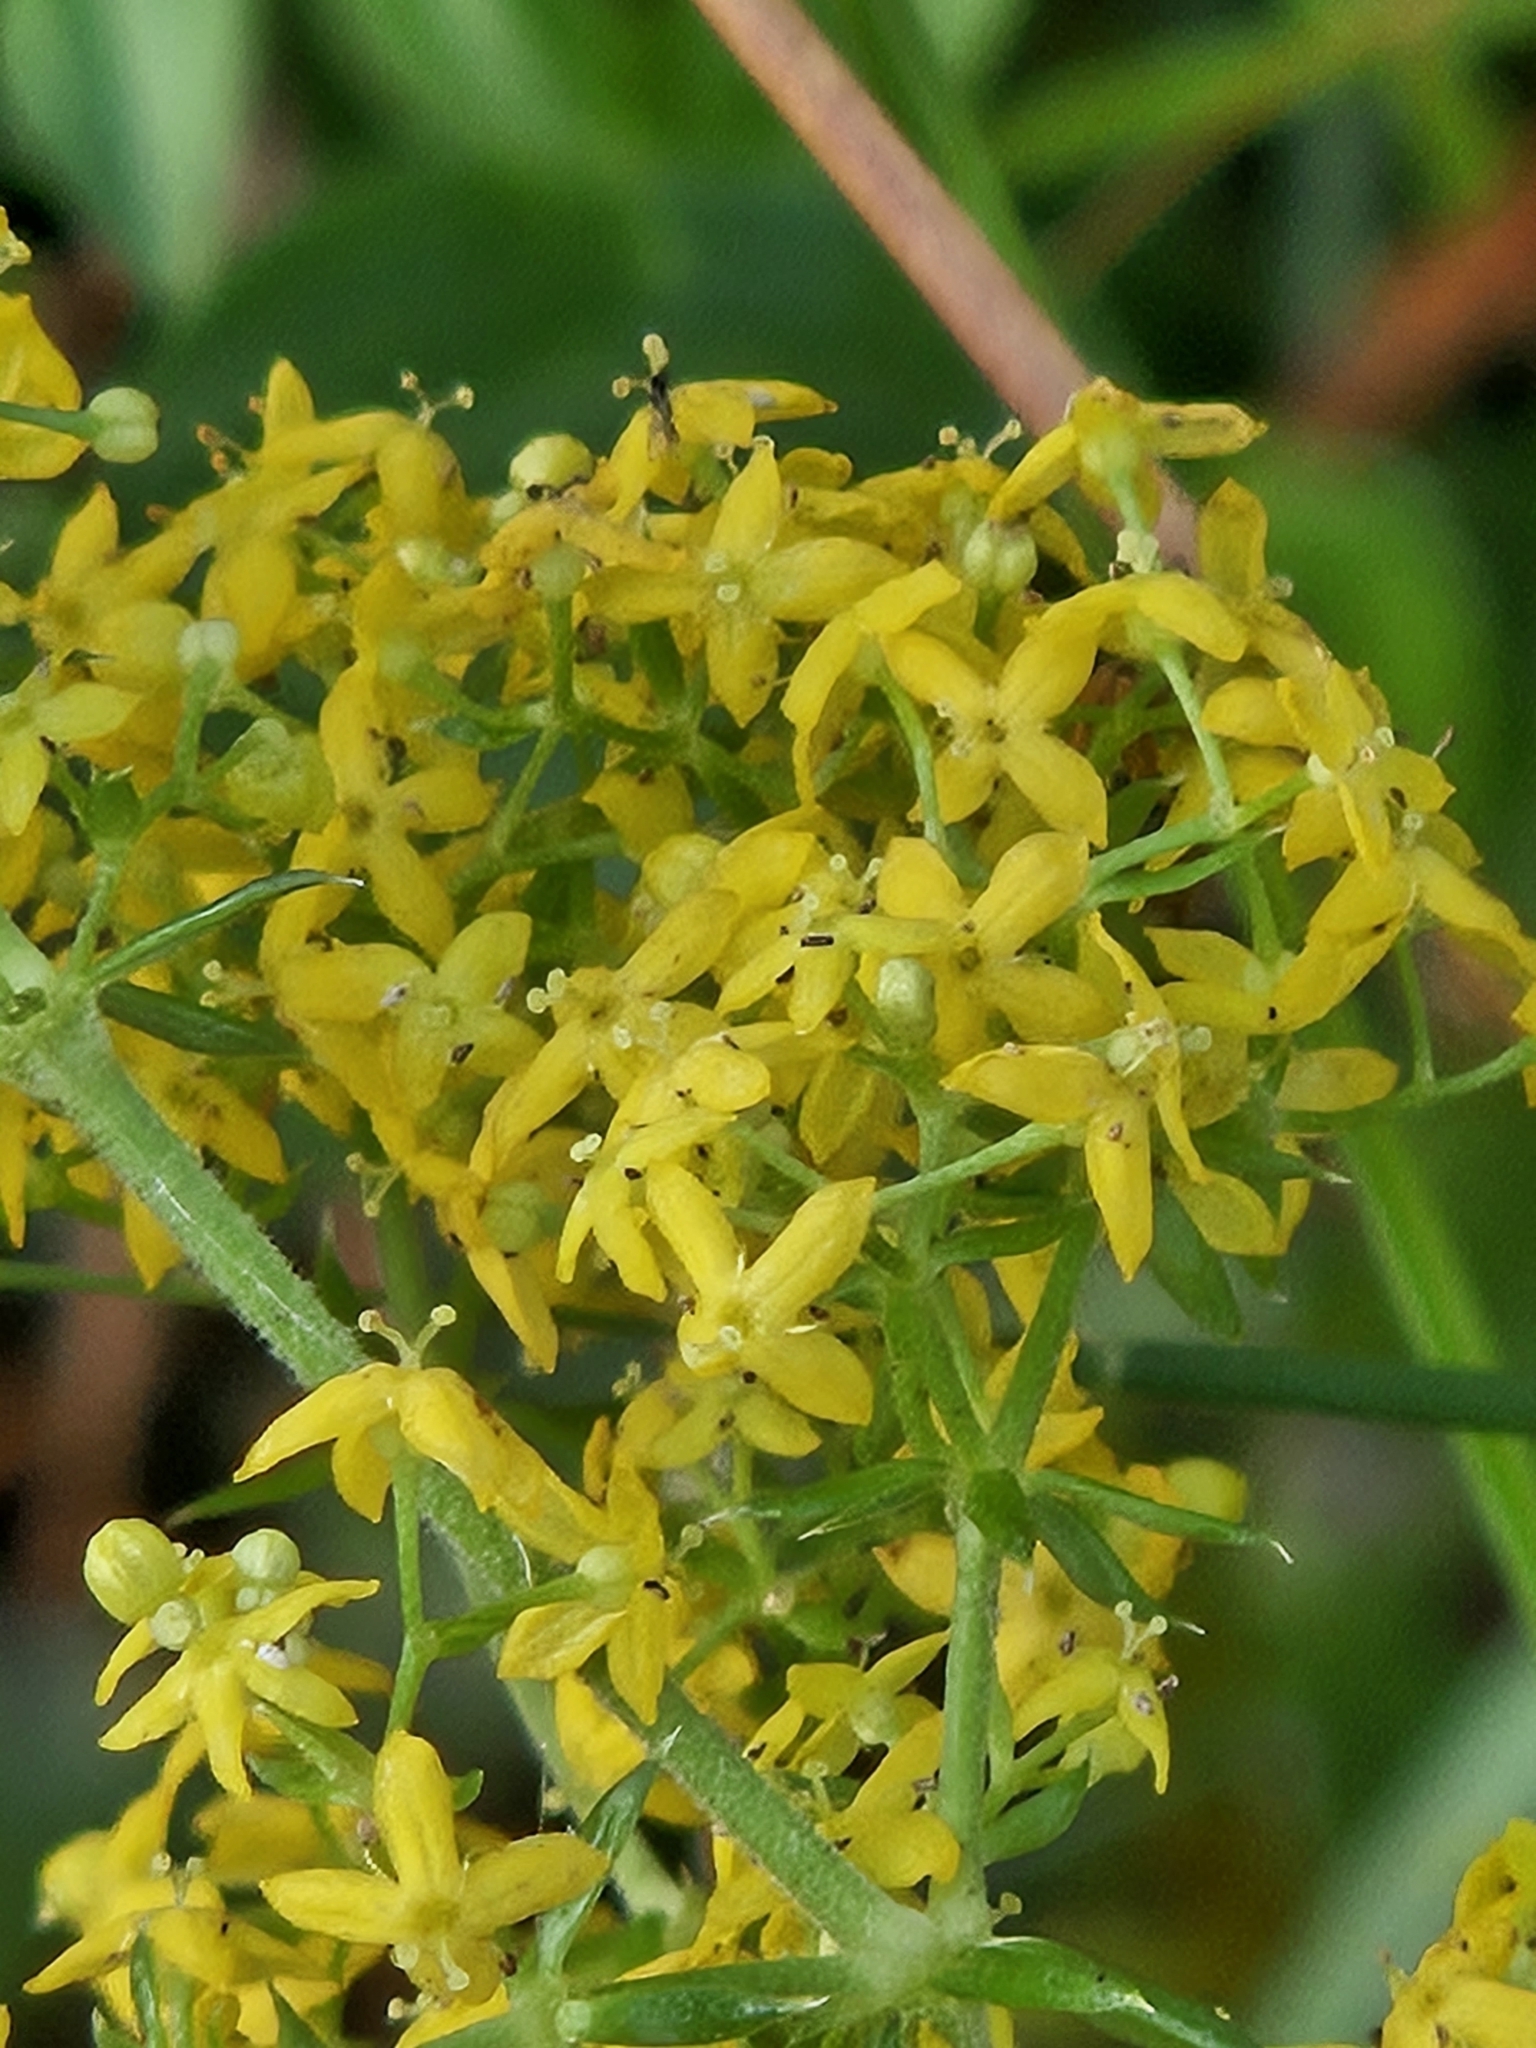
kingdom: Plantae
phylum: Tracheophyta
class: Magnoliopsida
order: Gentianales
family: Rubiaceae
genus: Galium
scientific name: Galium verum
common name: Lady's bedstraw
